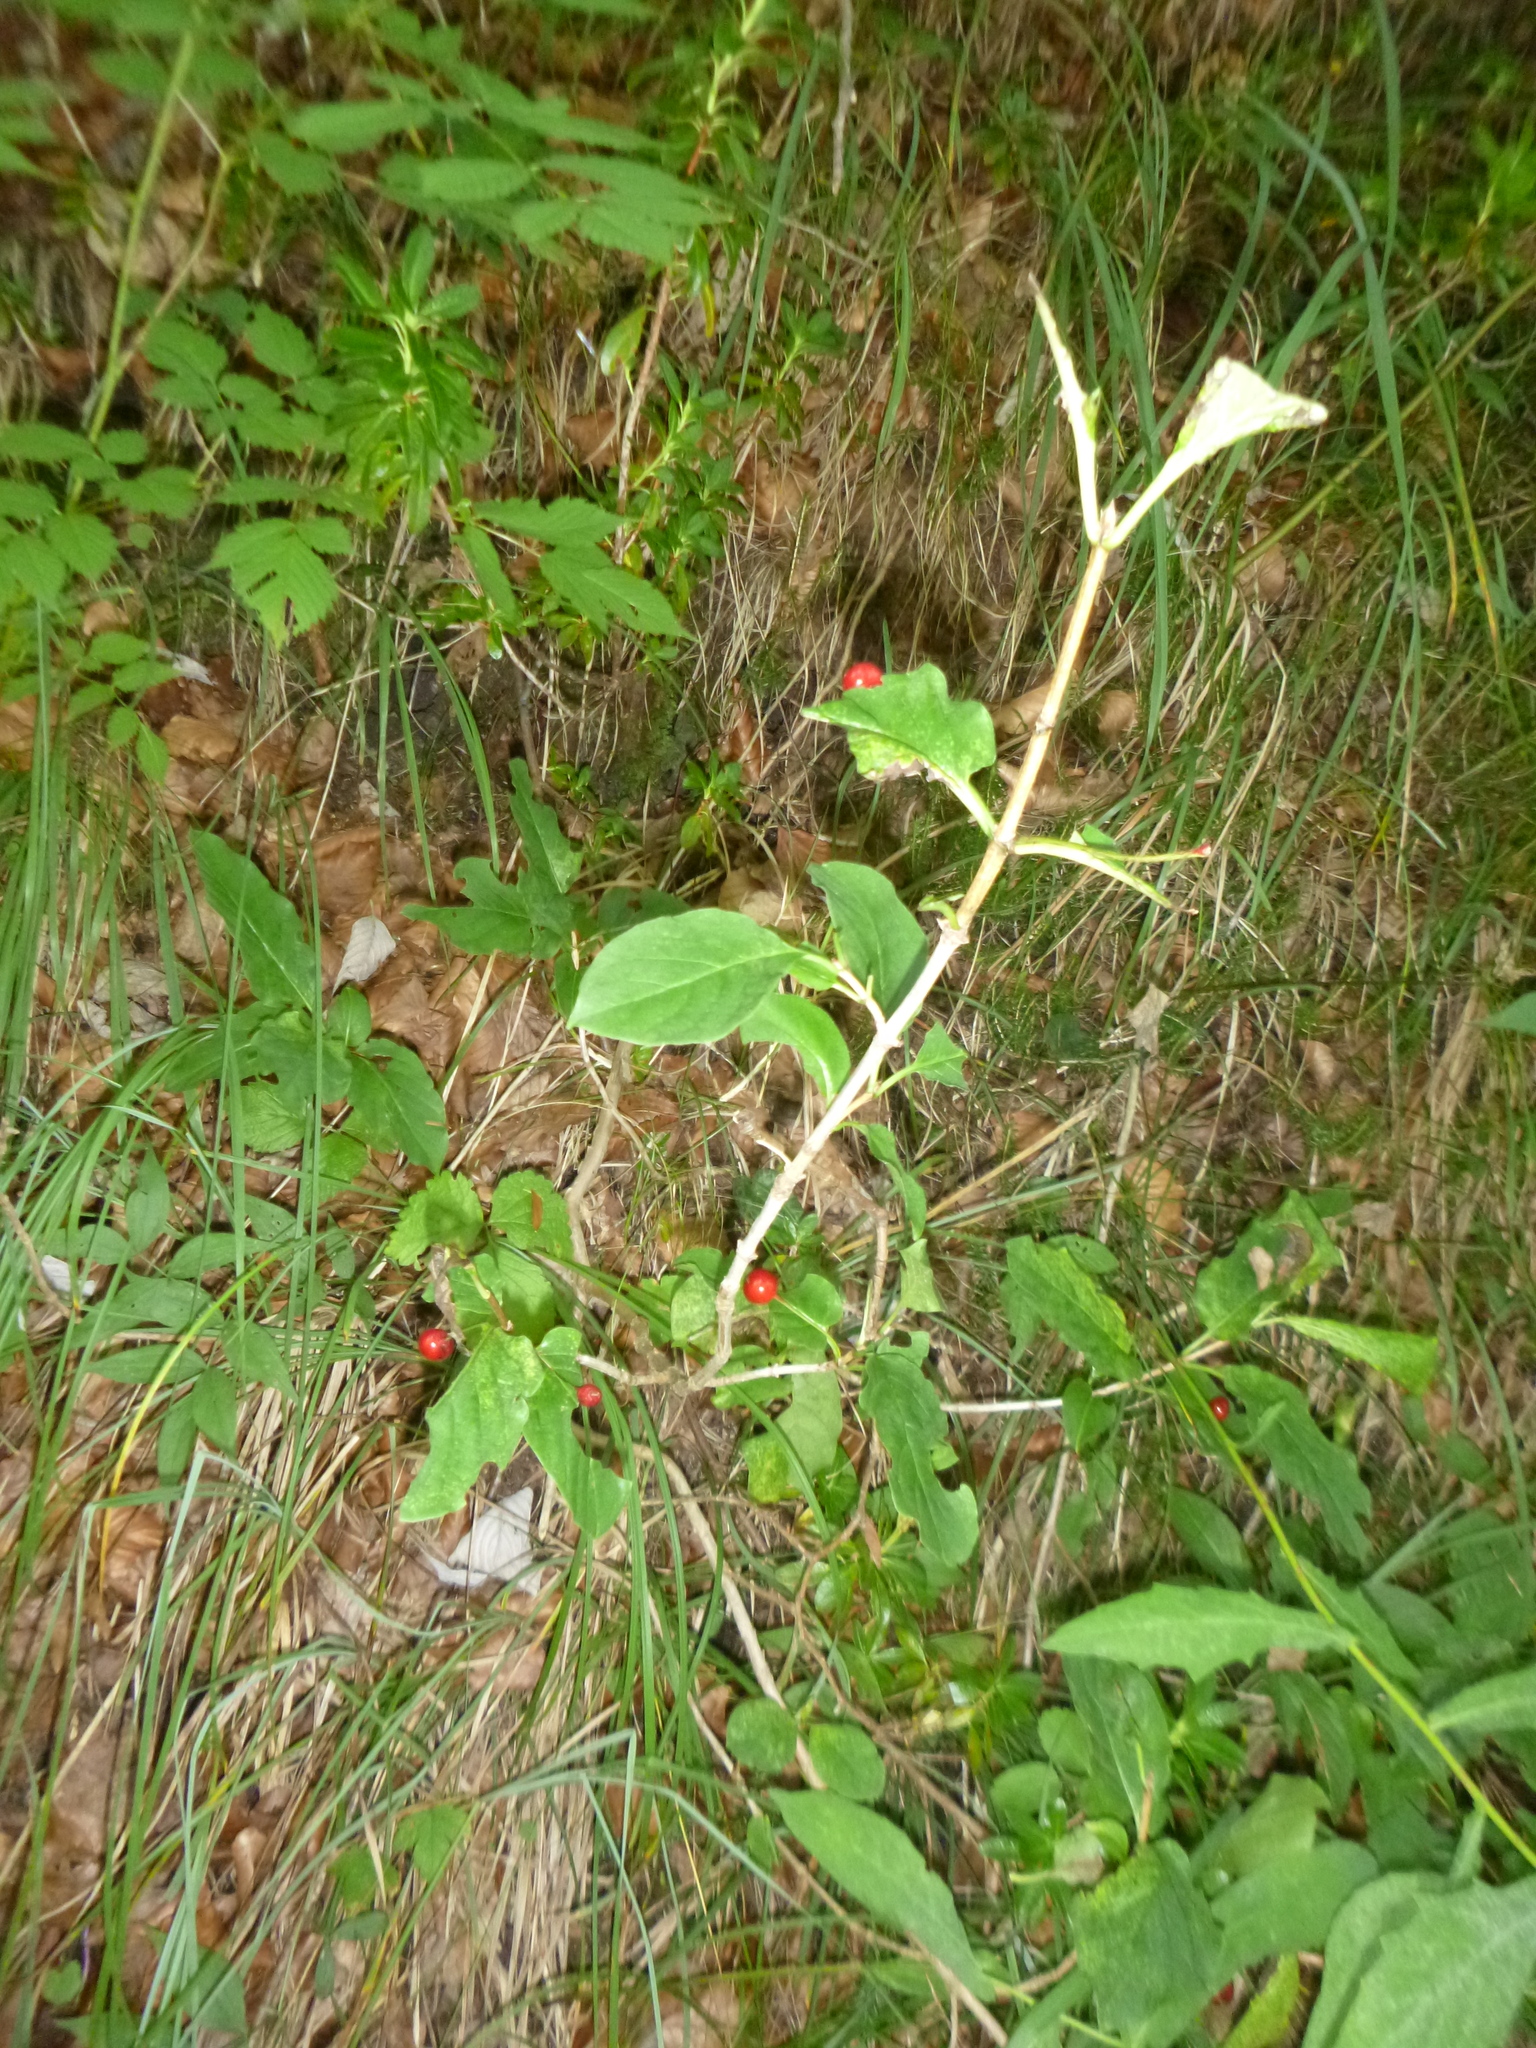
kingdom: Plantae
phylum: Tracheophyta
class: Magnoliopsida
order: Dipsacales
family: Caprifoliaceae
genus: Lonicera
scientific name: Lonicera alpigena
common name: Alpine honeysuckle
